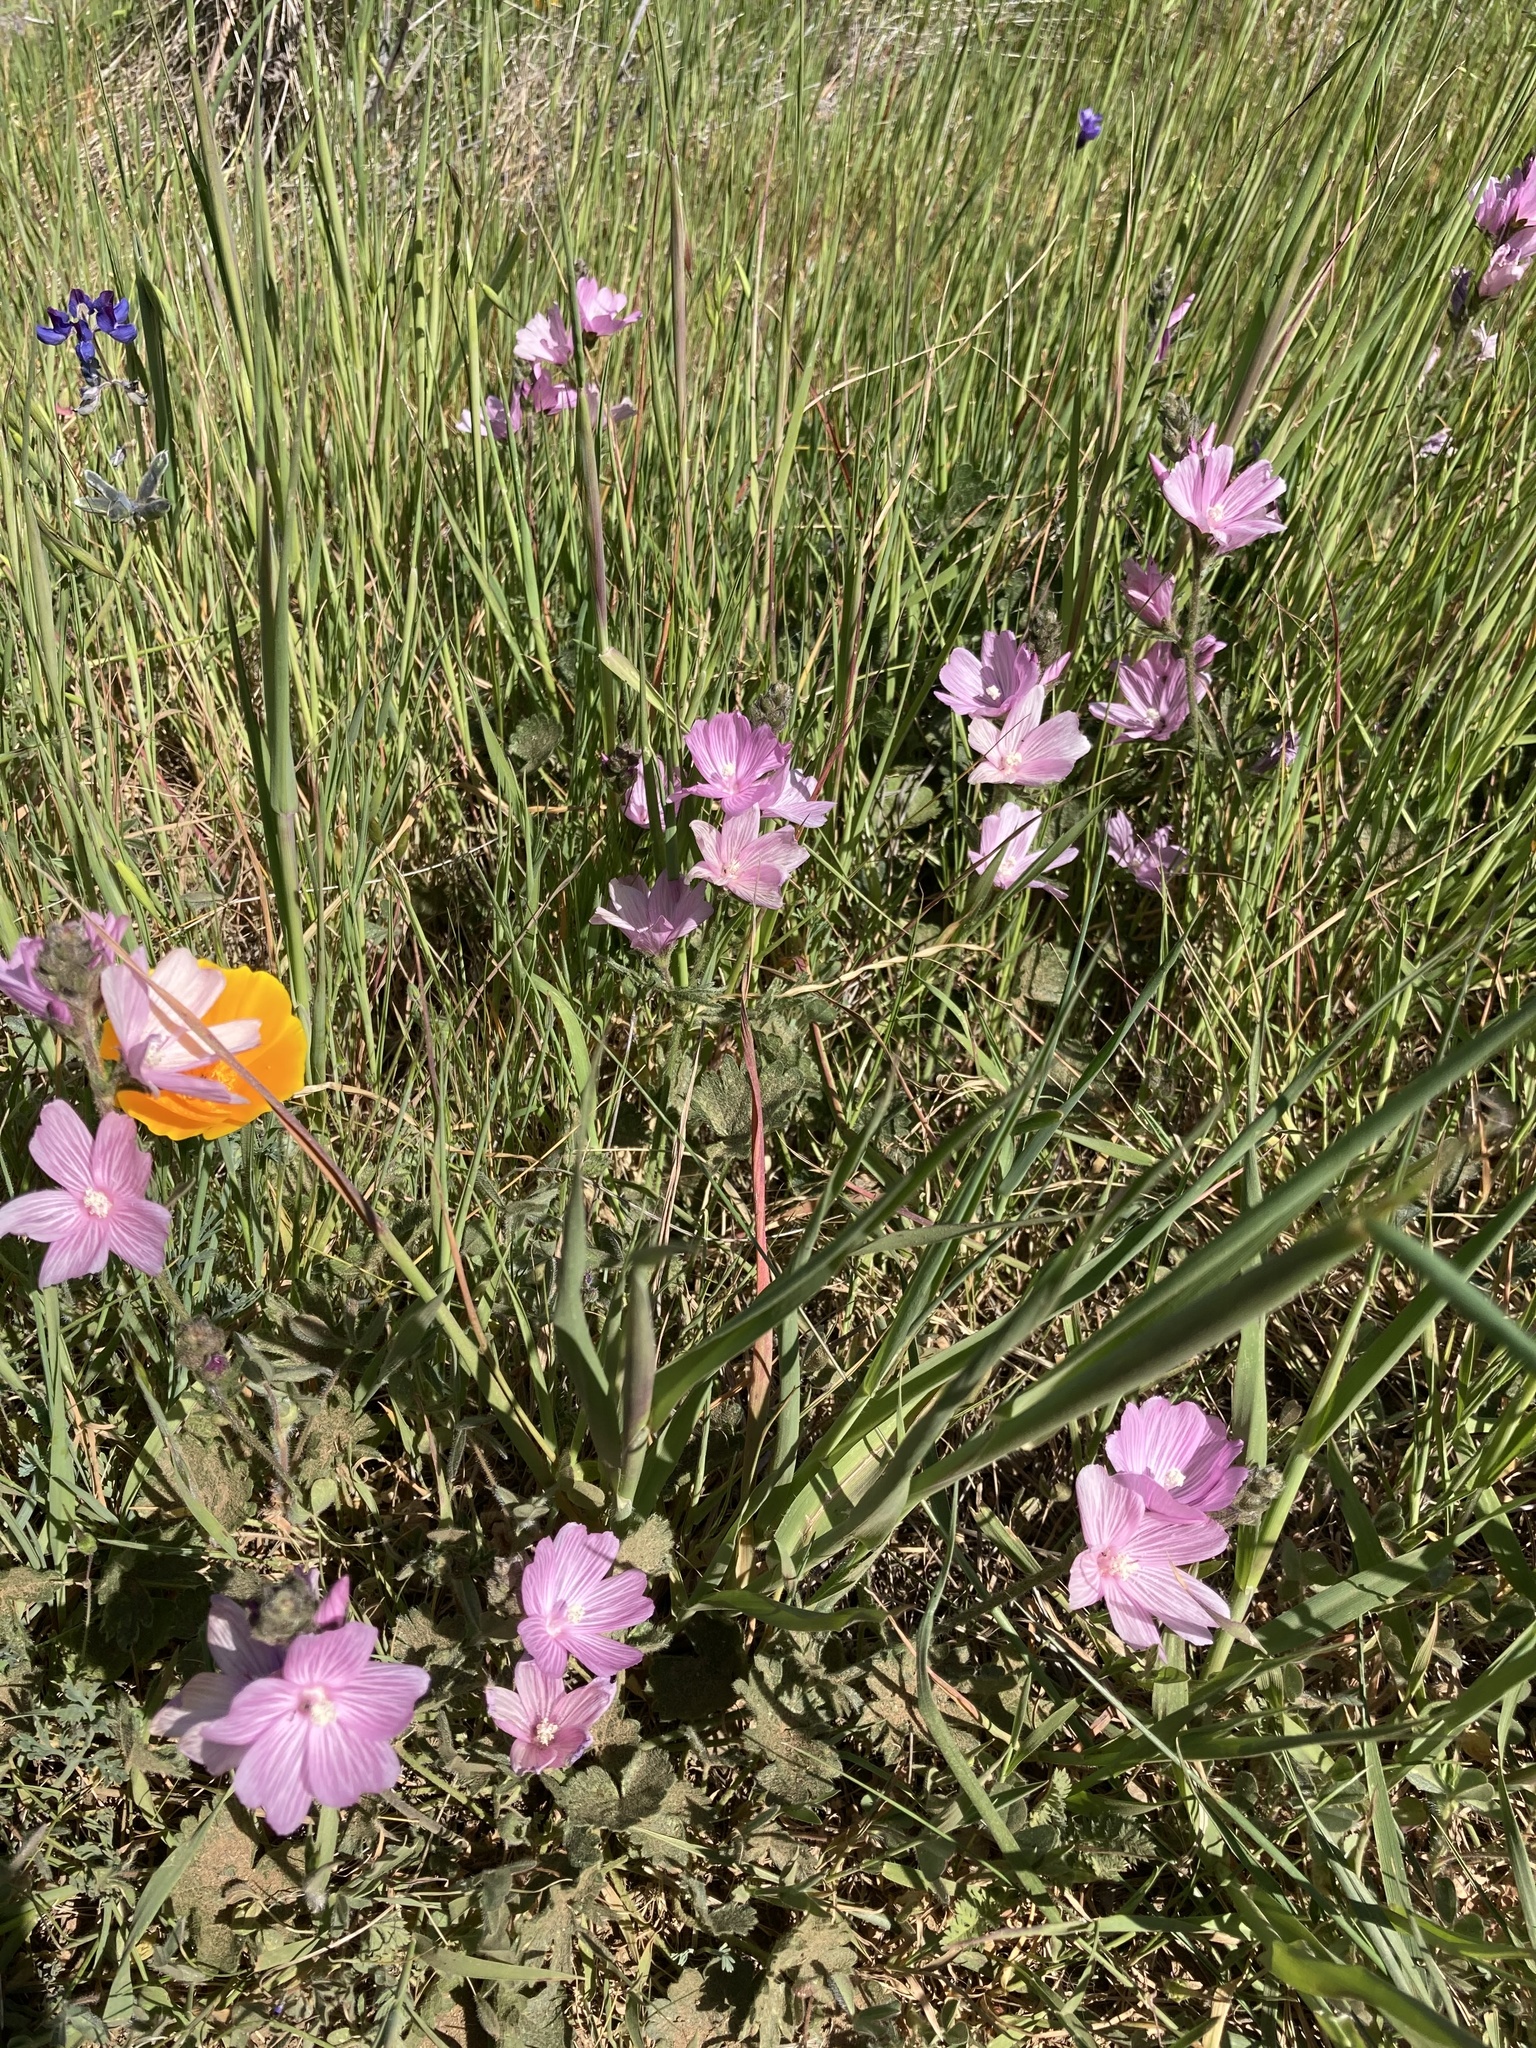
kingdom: Plantae
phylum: Tracheophyta
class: Magnoliopsida
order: Malvales
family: Malvaceae
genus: Sidalcea
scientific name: Sidalcea malviflora
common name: Greek mallow
